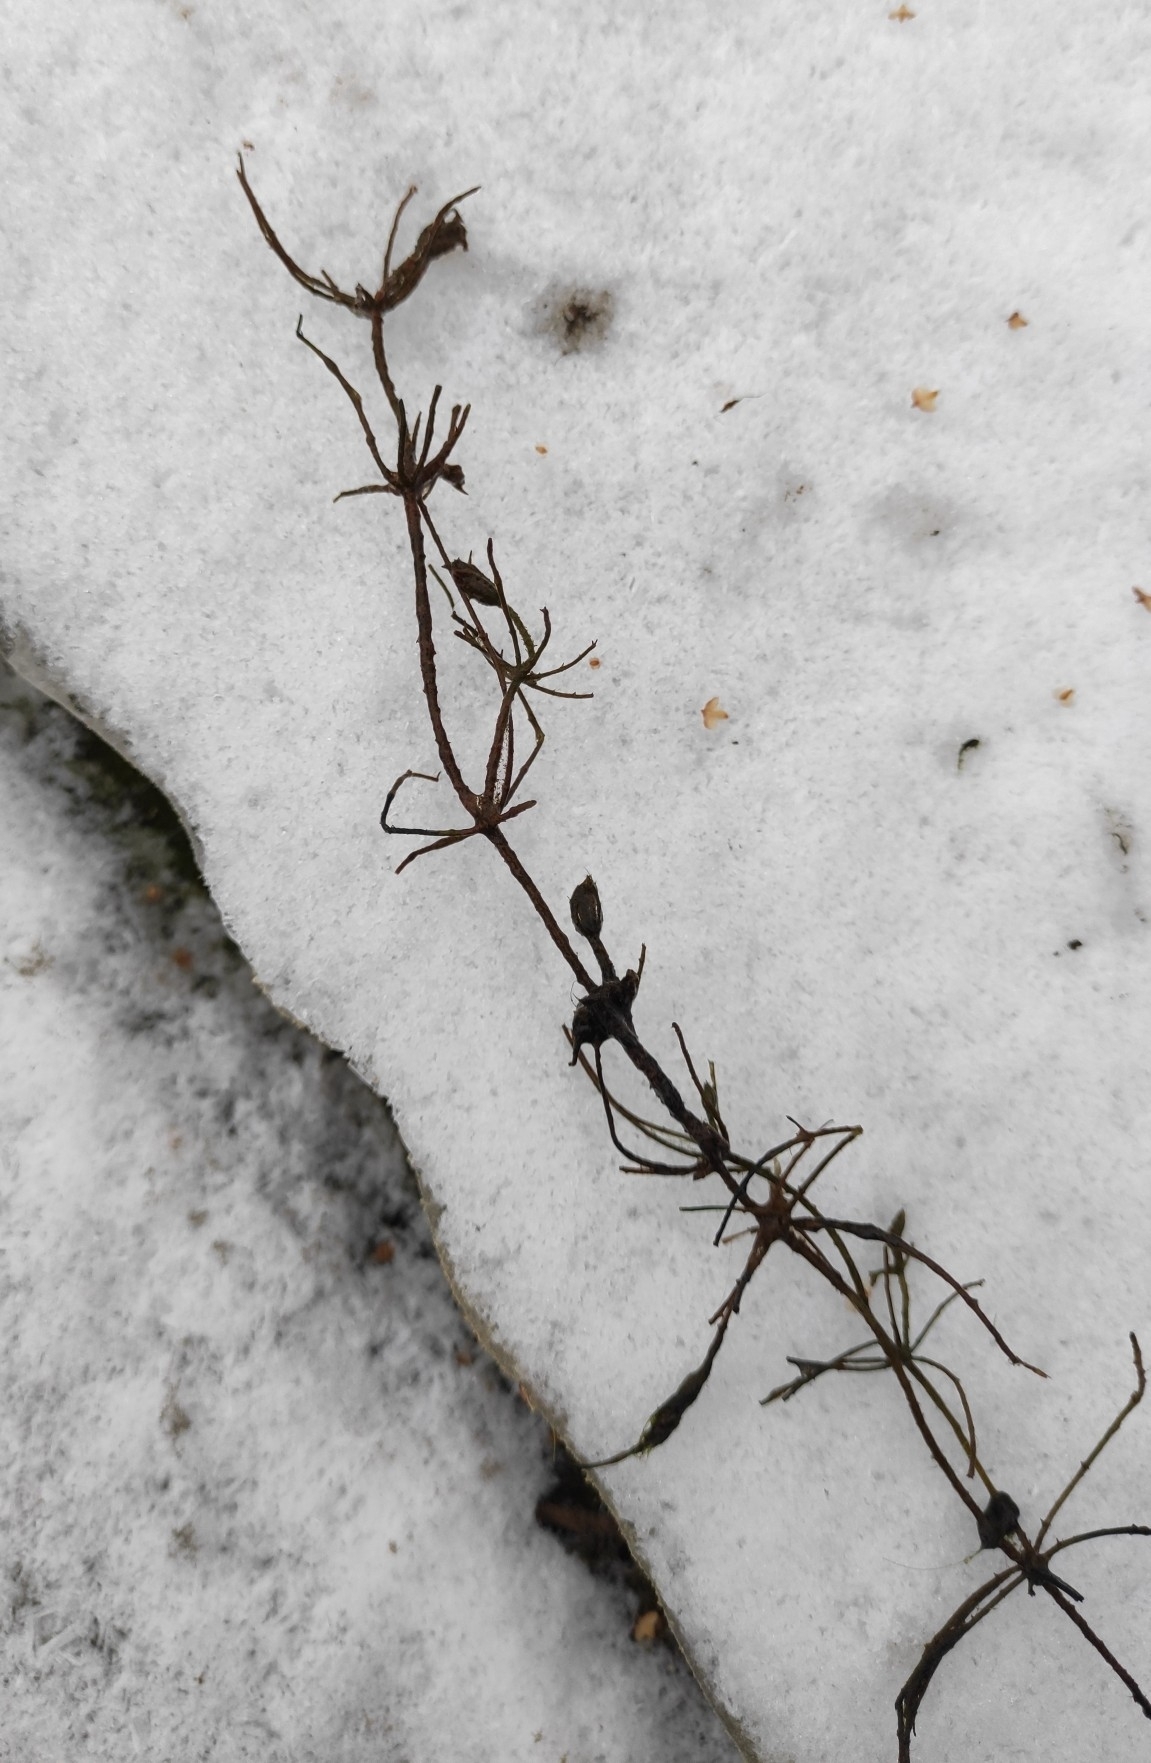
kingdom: Plantae
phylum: Charophyta
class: Charophyceae
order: Charales
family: Characeae
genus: Chara
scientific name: Chara subspinosa
